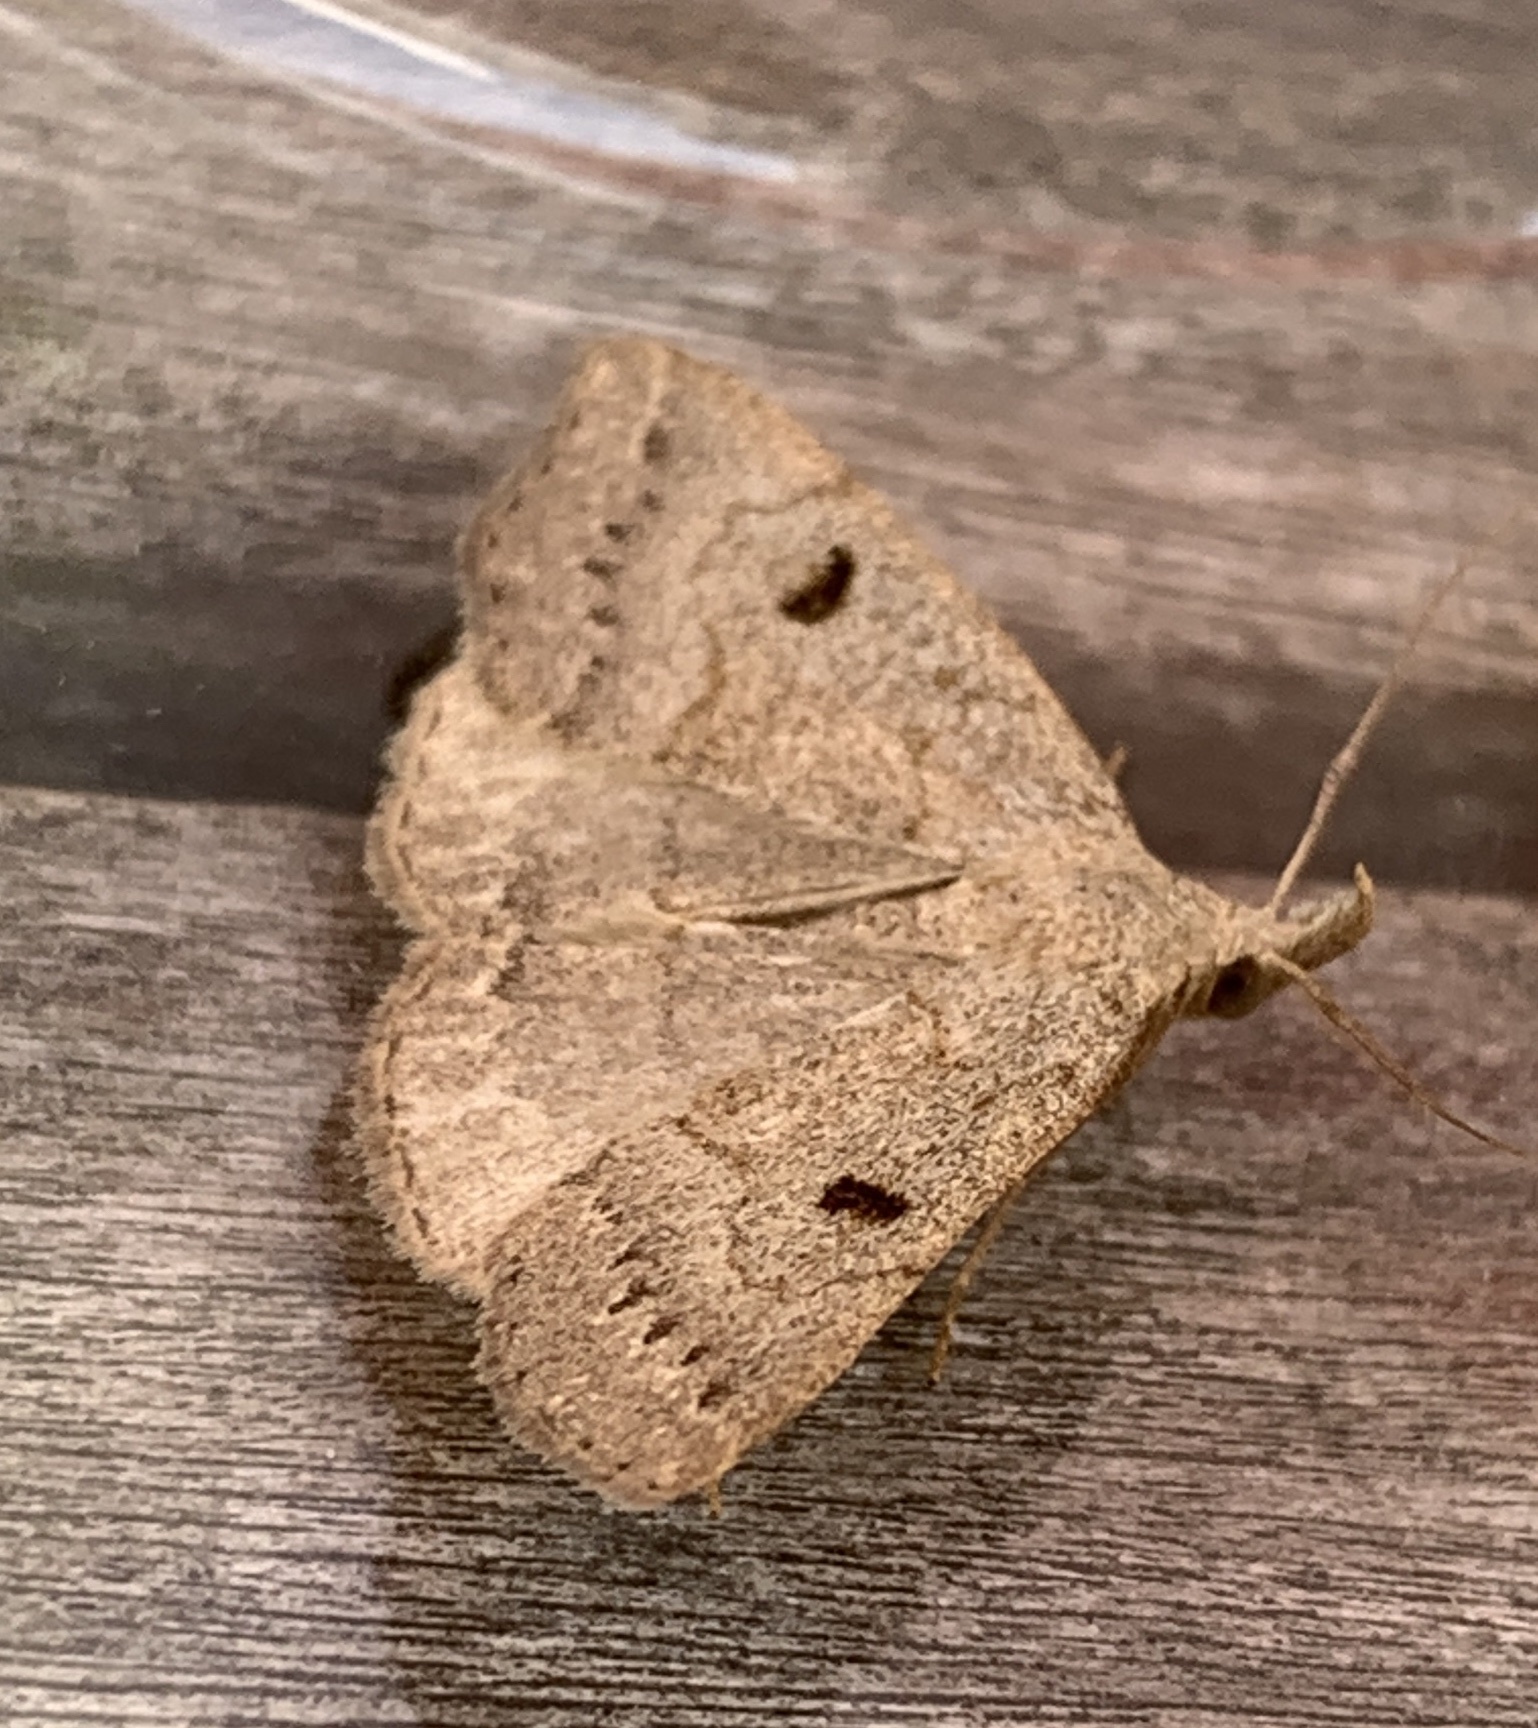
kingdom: Animalia
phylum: Arthropoda
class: Insecta
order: Lepidoptera
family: Erebidae
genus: Macrochilo
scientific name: Macrochilo morbidalis
